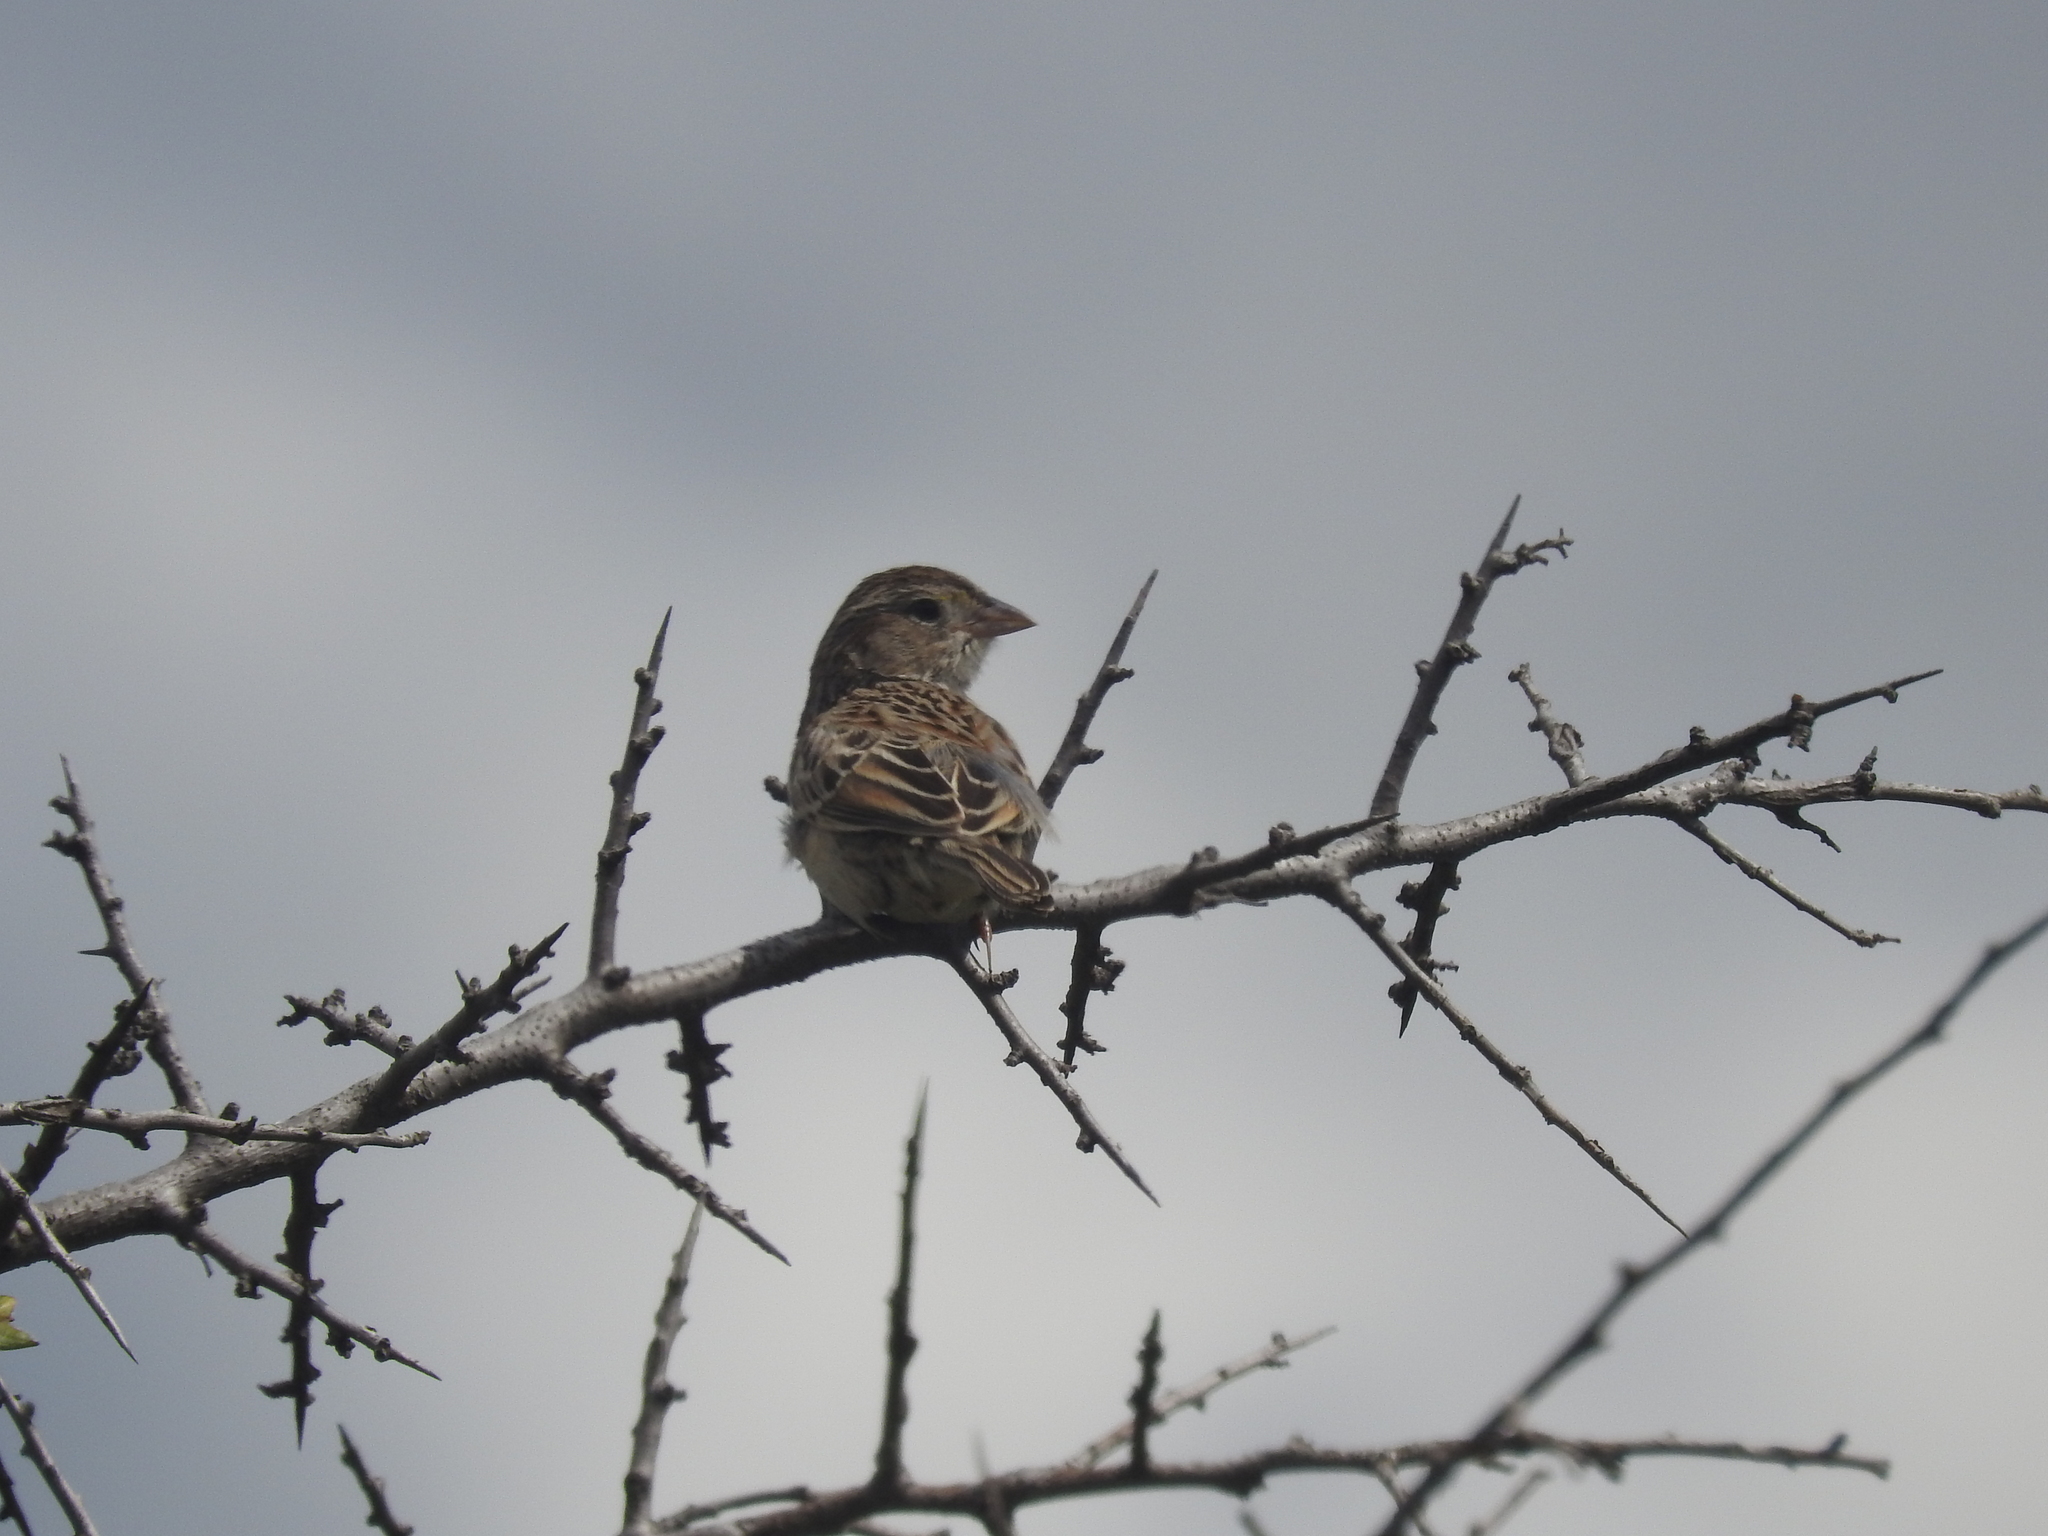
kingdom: Animalia
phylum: Chordata
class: Aves
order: Passeriformes
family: Passerellidae
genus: Ammodramus
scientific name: Ammodramus humeralis
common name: Grassland sparrow
